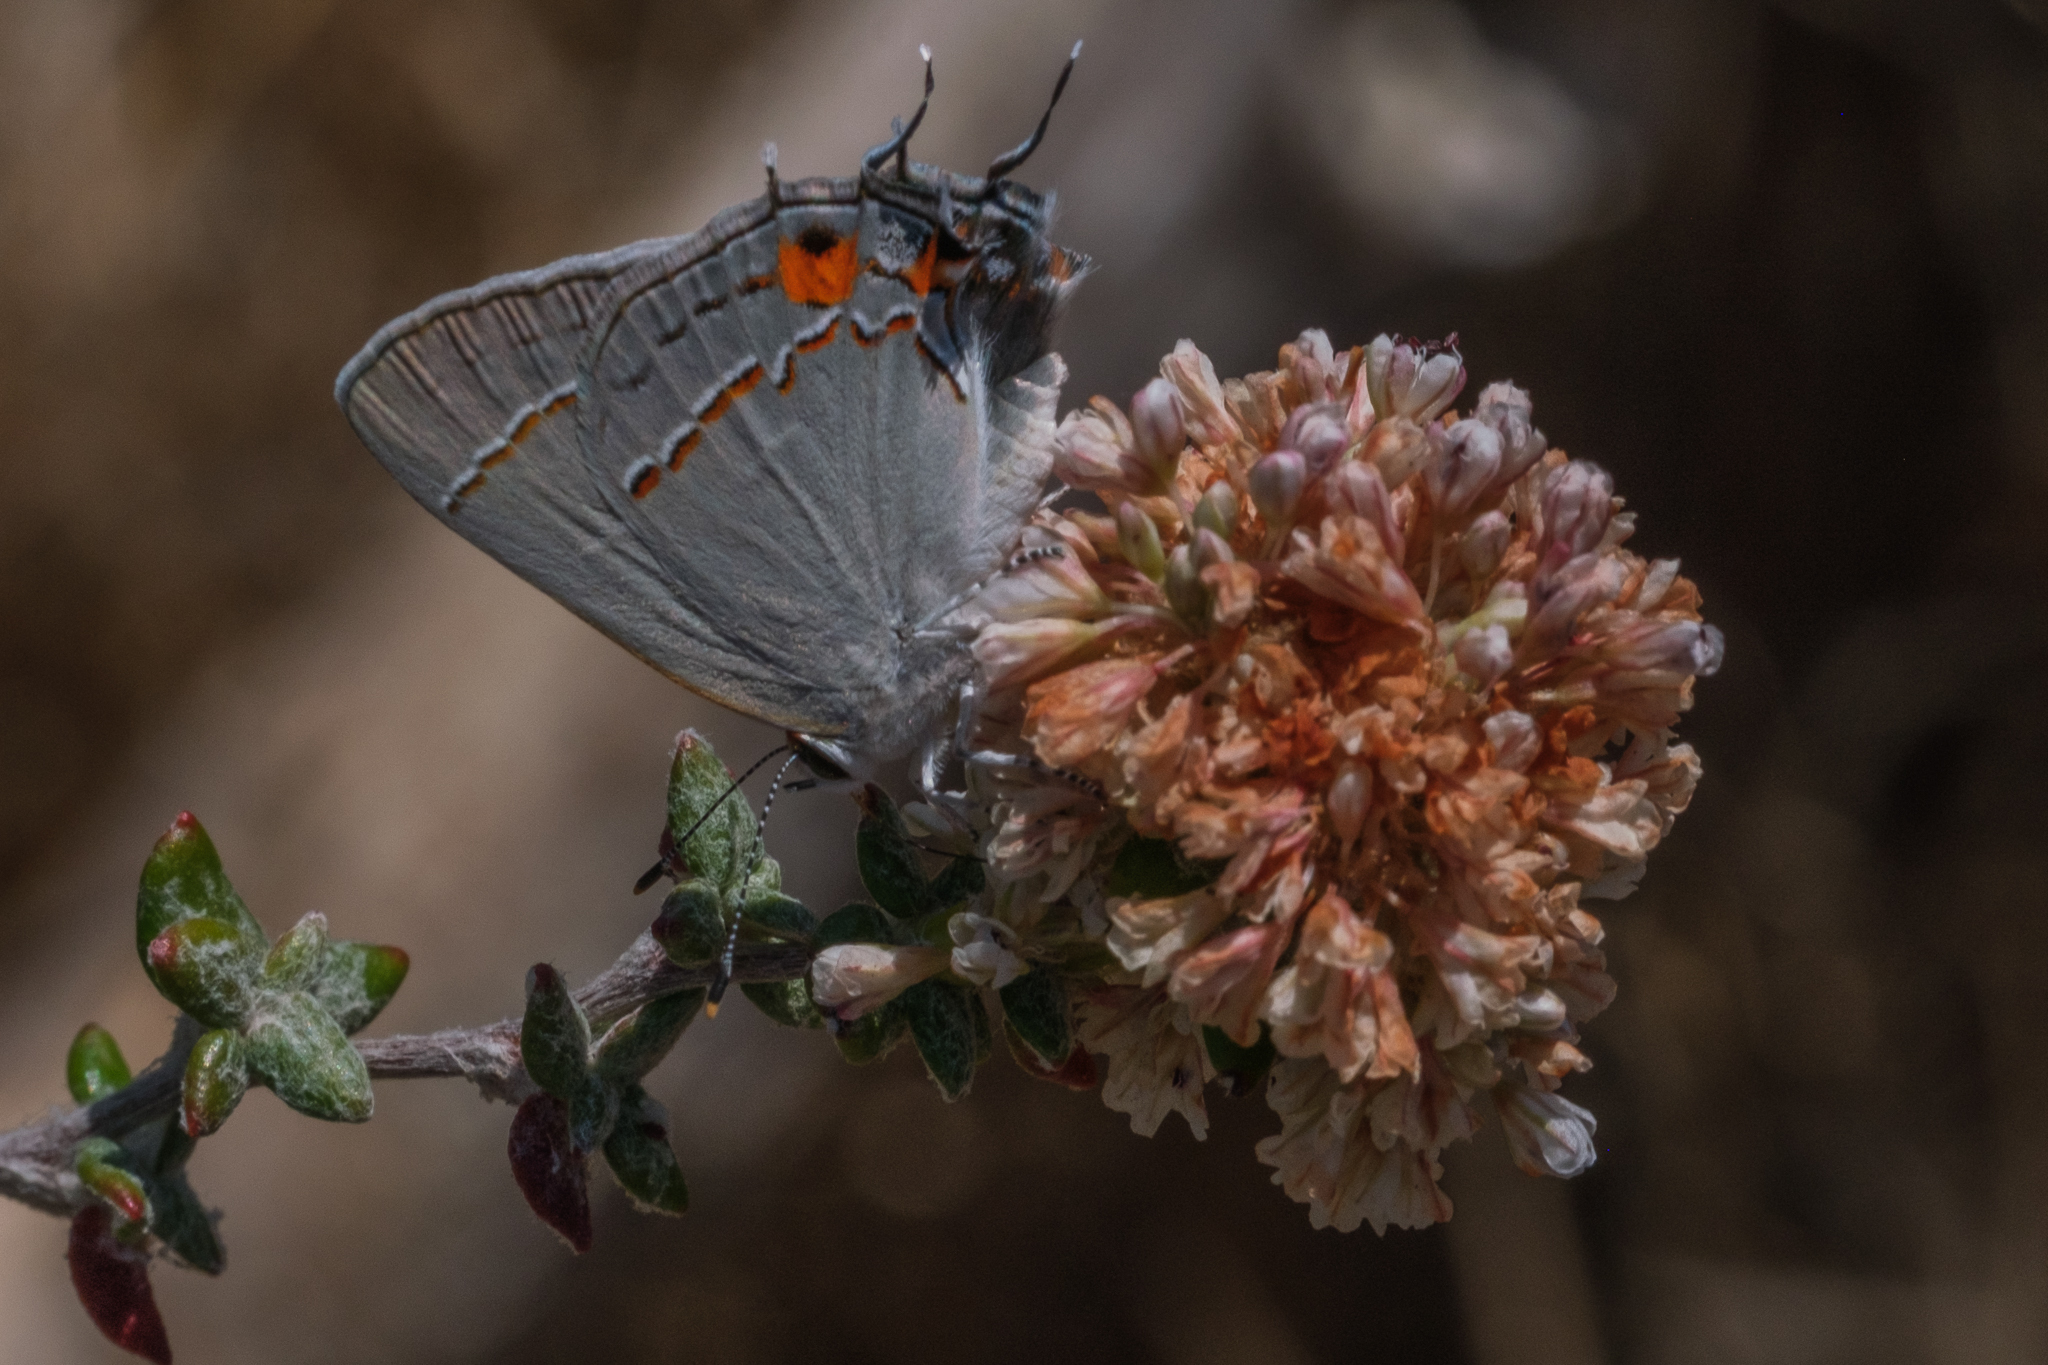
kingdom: Animalia
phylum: Arthropoda
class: Insecta
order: Lepidoptera
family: Lycaenidae
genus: Strymon
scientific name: Strymon melinus
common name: Gray hairstreak
